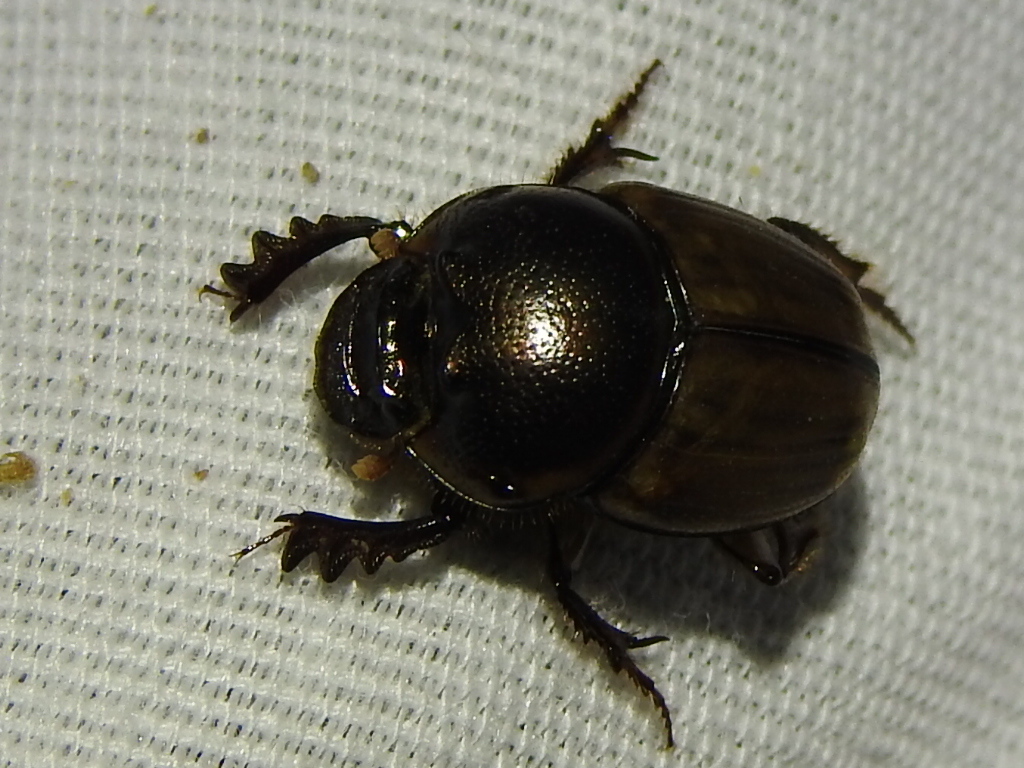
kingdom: Animalia
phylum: Arthropoda
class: Insecta
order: Coleoptera
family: Scarabaeidae
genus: Digitonthophagus
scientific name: Digitonthophagus gazella
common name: Brown dung beetle
